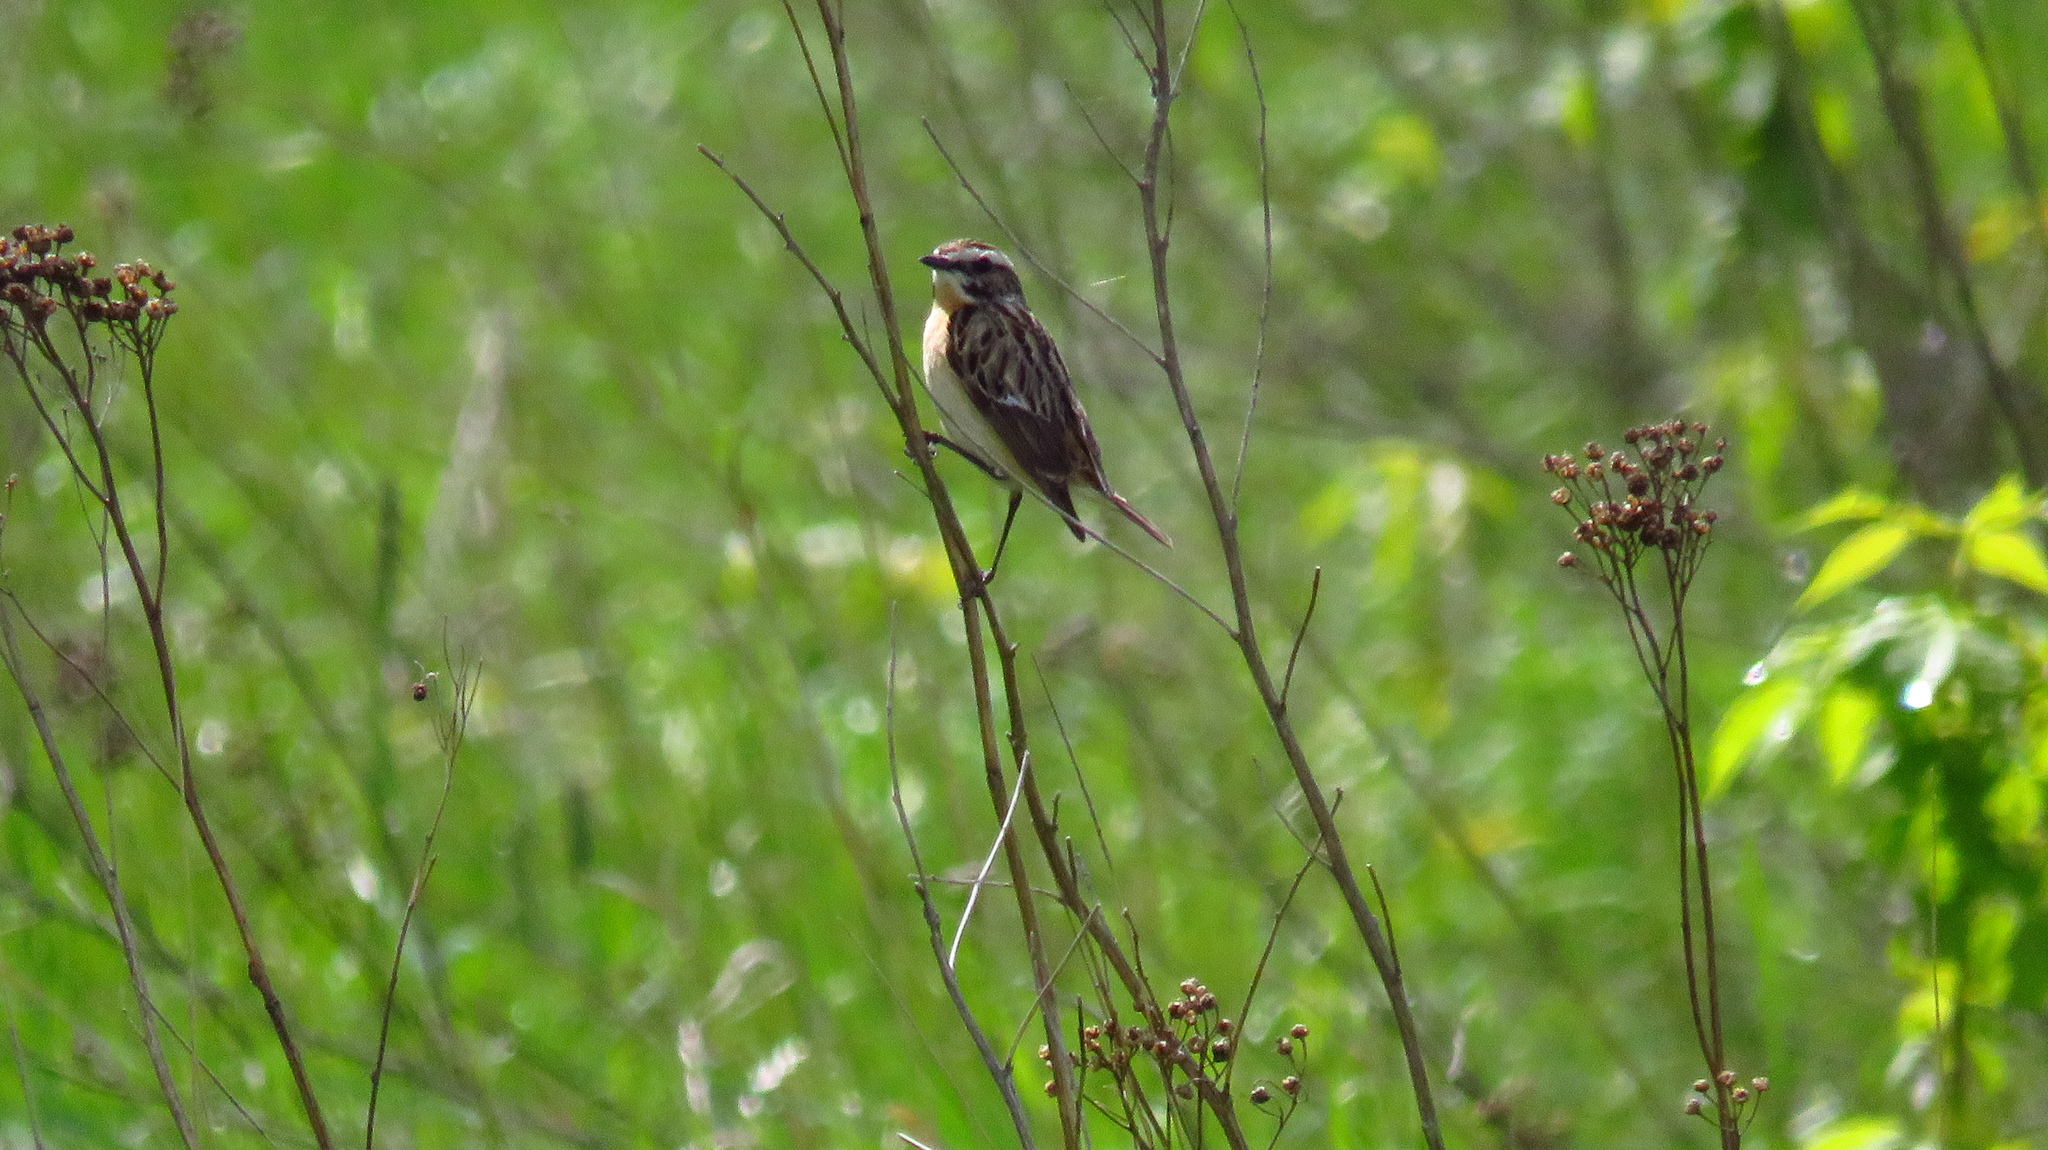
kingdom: Animalia
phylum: Chordata
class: Aves
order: Passeriformes
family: Muscicapidae
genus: Saxicola
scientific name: Saxicola rubetra
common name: Whinchat
